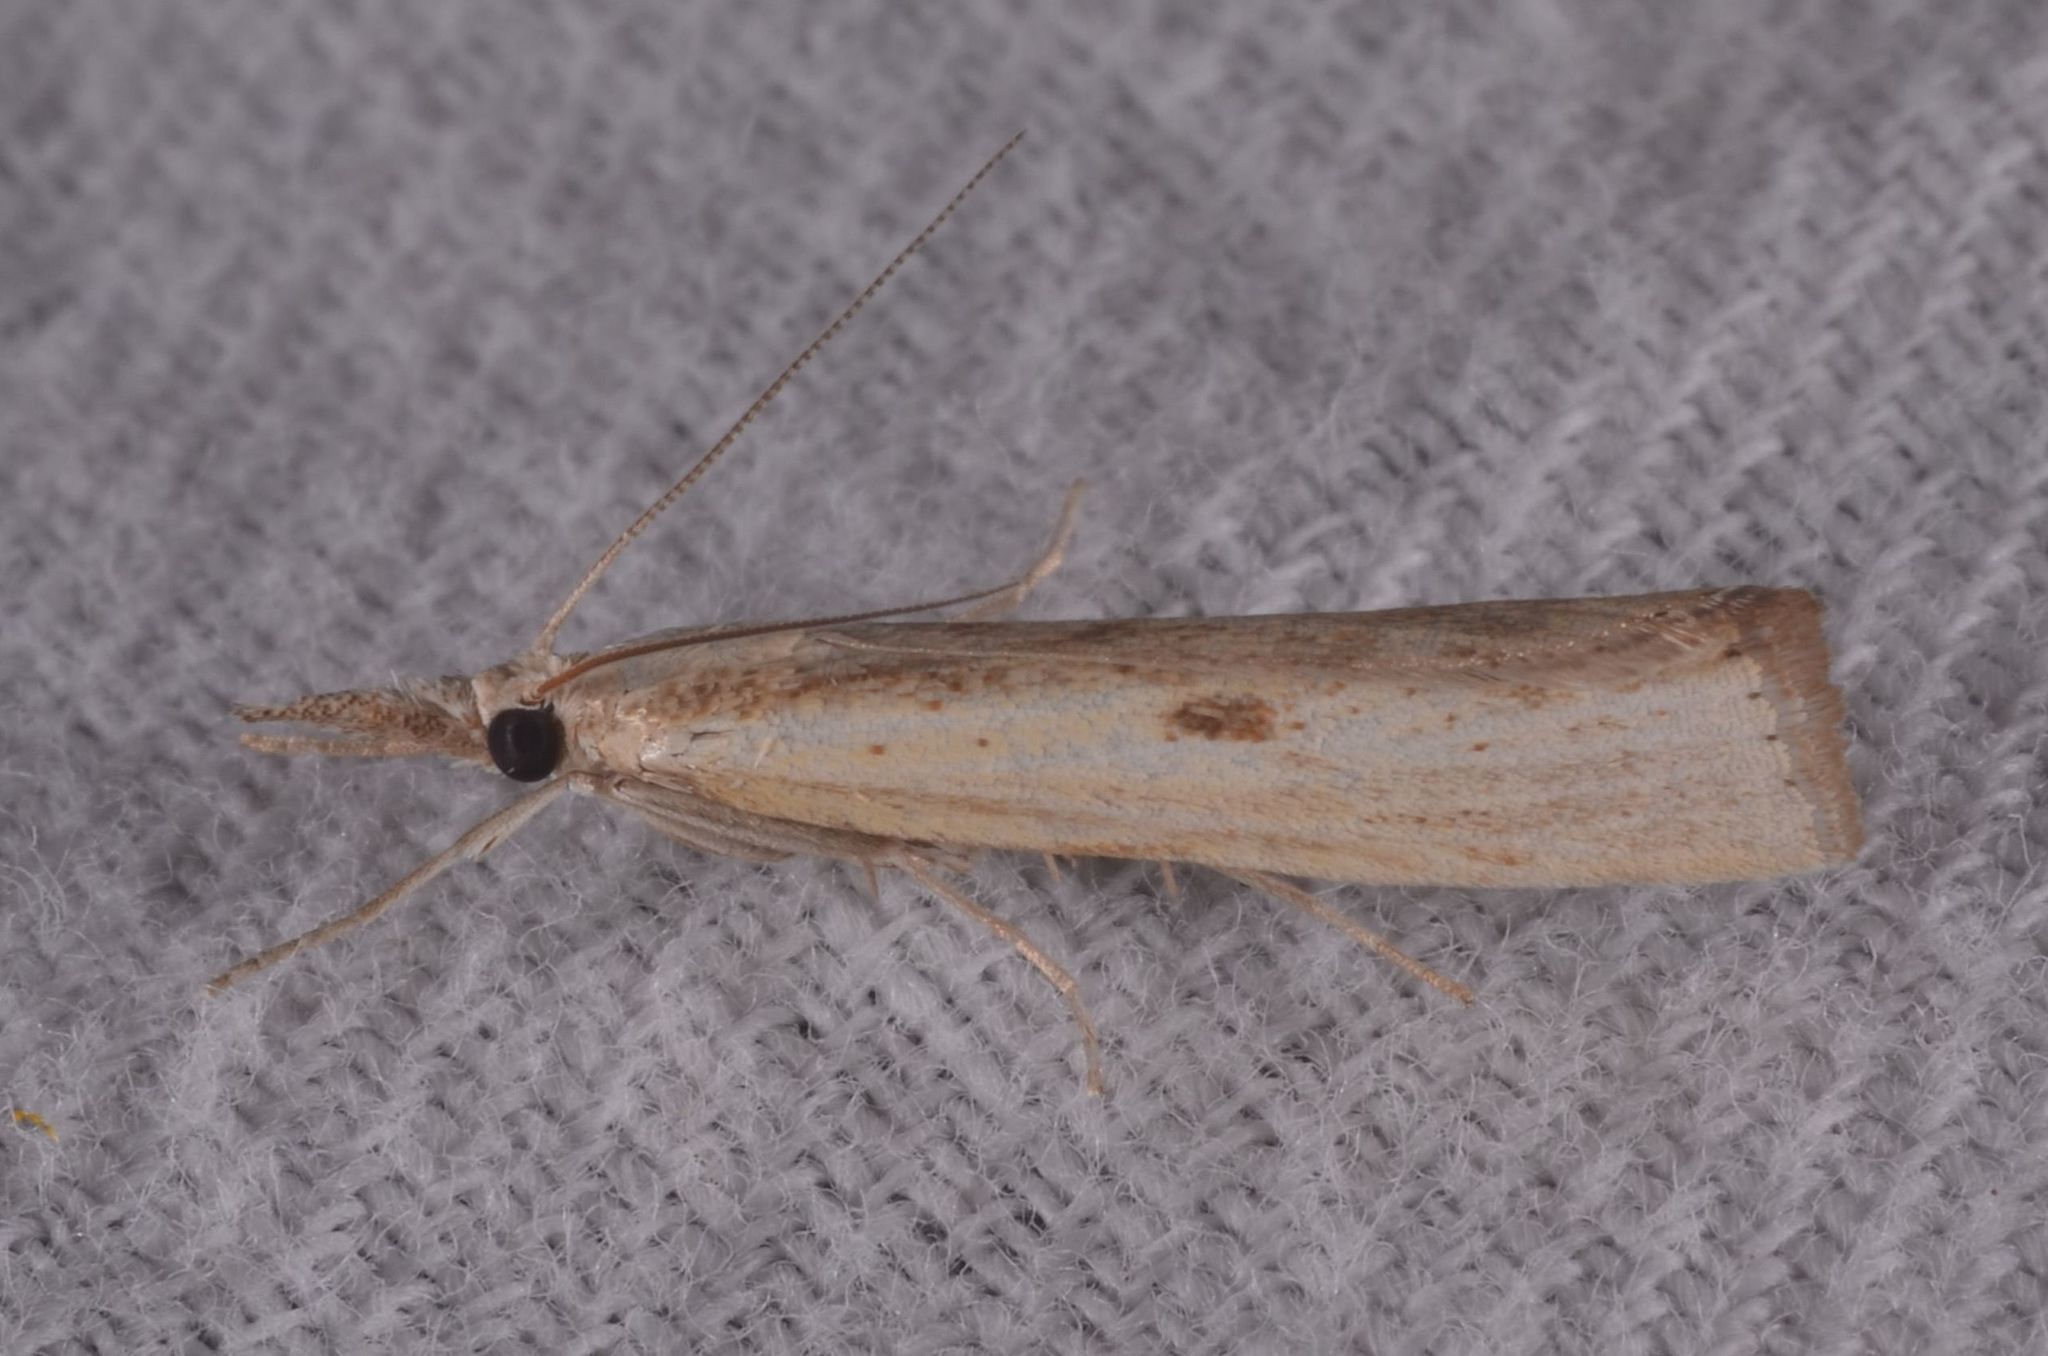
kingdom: Animalia
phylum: Arthropoda
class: Insecta
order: Lepidoptera
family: Crambidae
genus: Agriphila
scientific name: Agriphila inquinatella
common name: Barred grass-veneer
